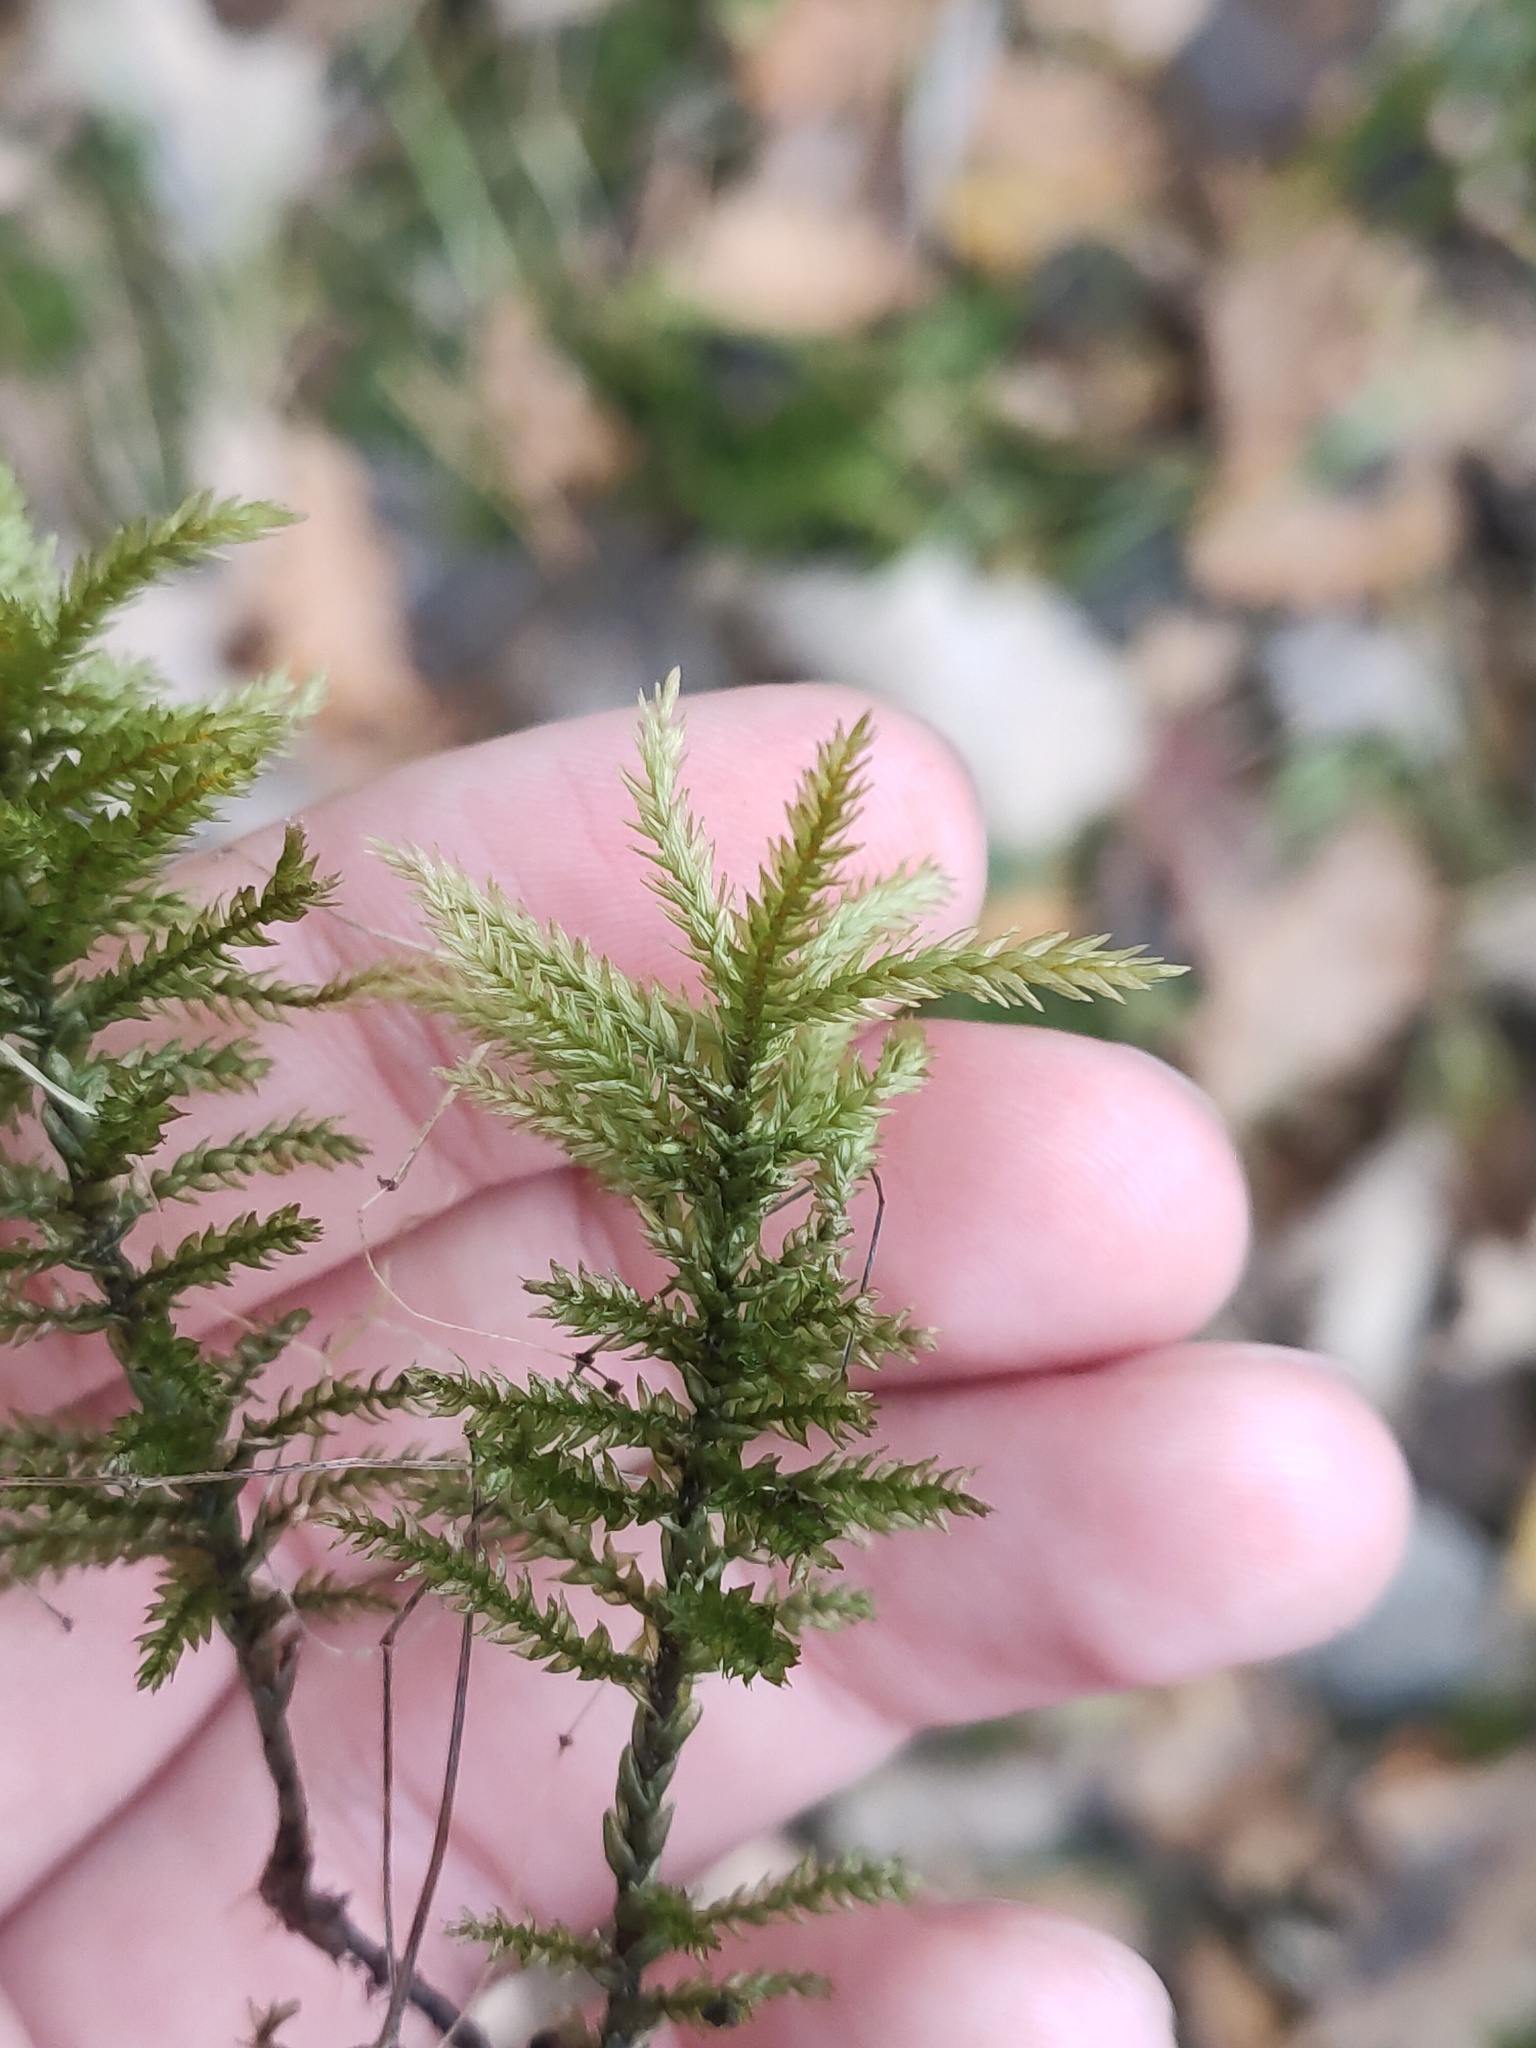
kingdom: Plantae
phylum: Bryophyta
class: Bryopsida
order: Hypnales
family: Climaciaceae
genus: Climacium
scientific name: Climacium dendroides
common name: Northern tree moss
